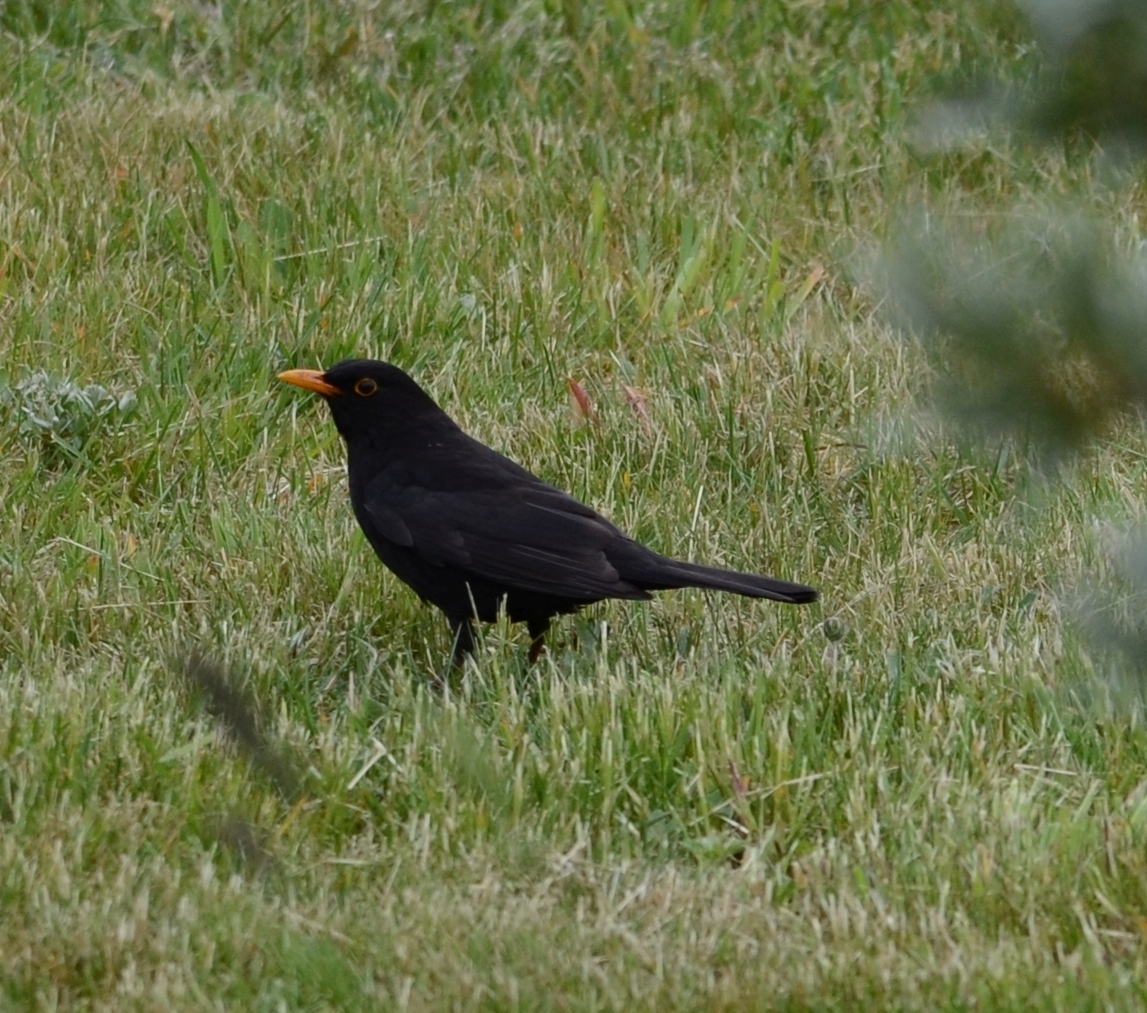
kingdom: Animalia
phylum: Chordata
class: Aves
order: Passeriformes
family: Turdidae
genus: Turdus
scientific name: Turdus merula
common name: Common blackbird
